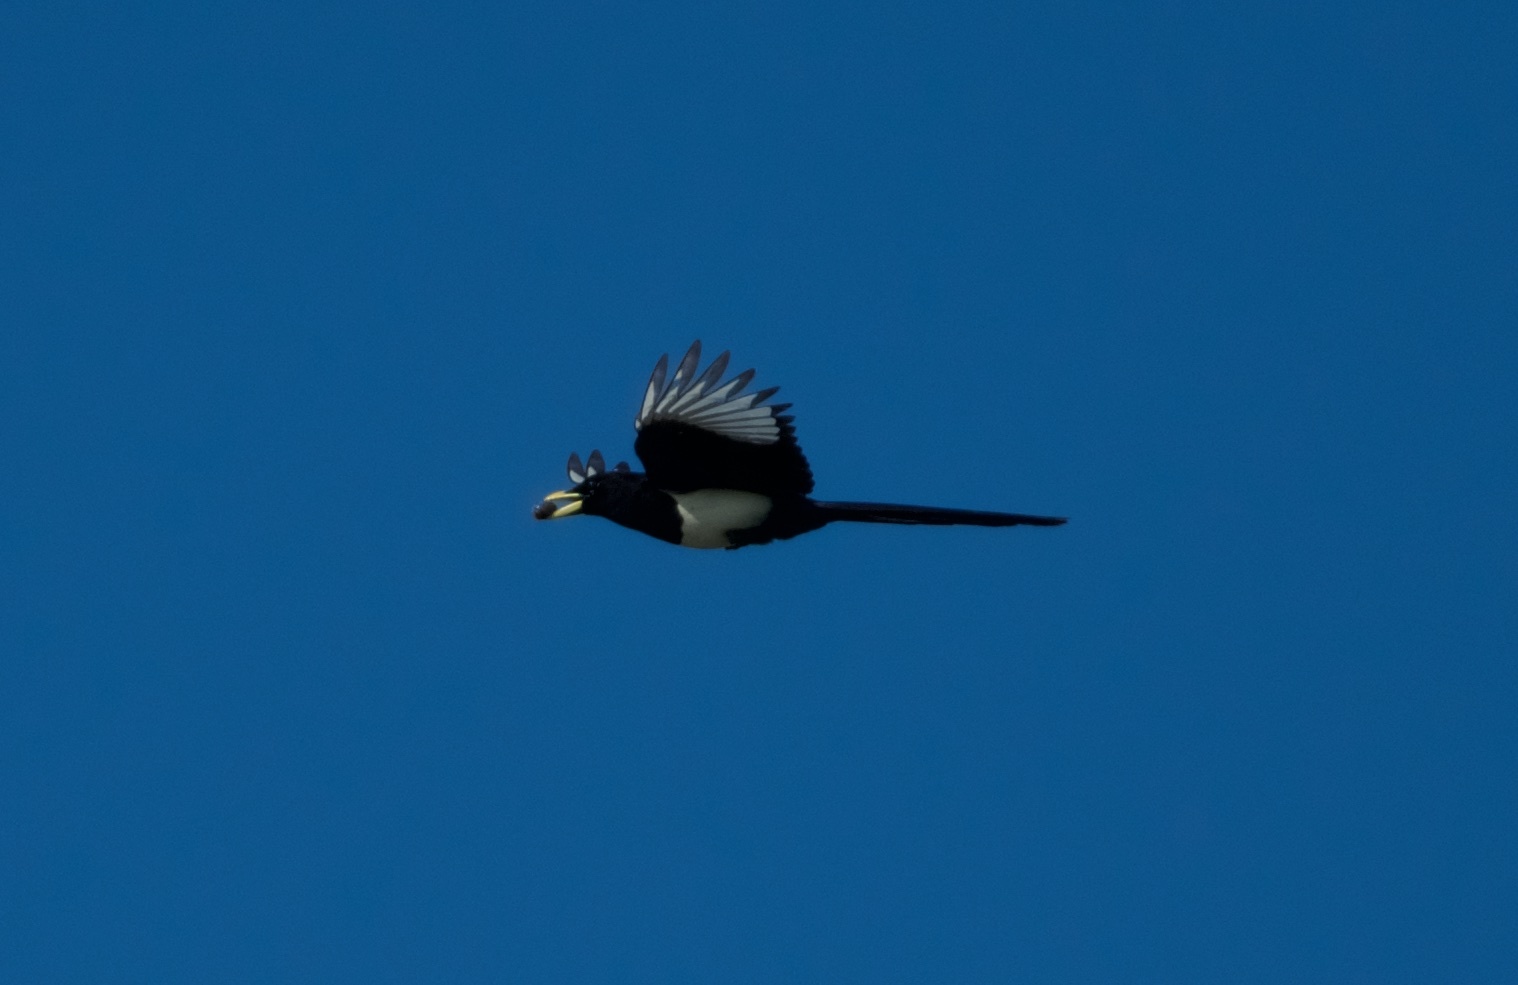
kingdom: Animalia
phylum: Chordata
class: Aves
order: Passeriformes
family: Corvidae
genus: Pica
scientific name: Pica nuttalli
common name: Yellow-billed magpie
